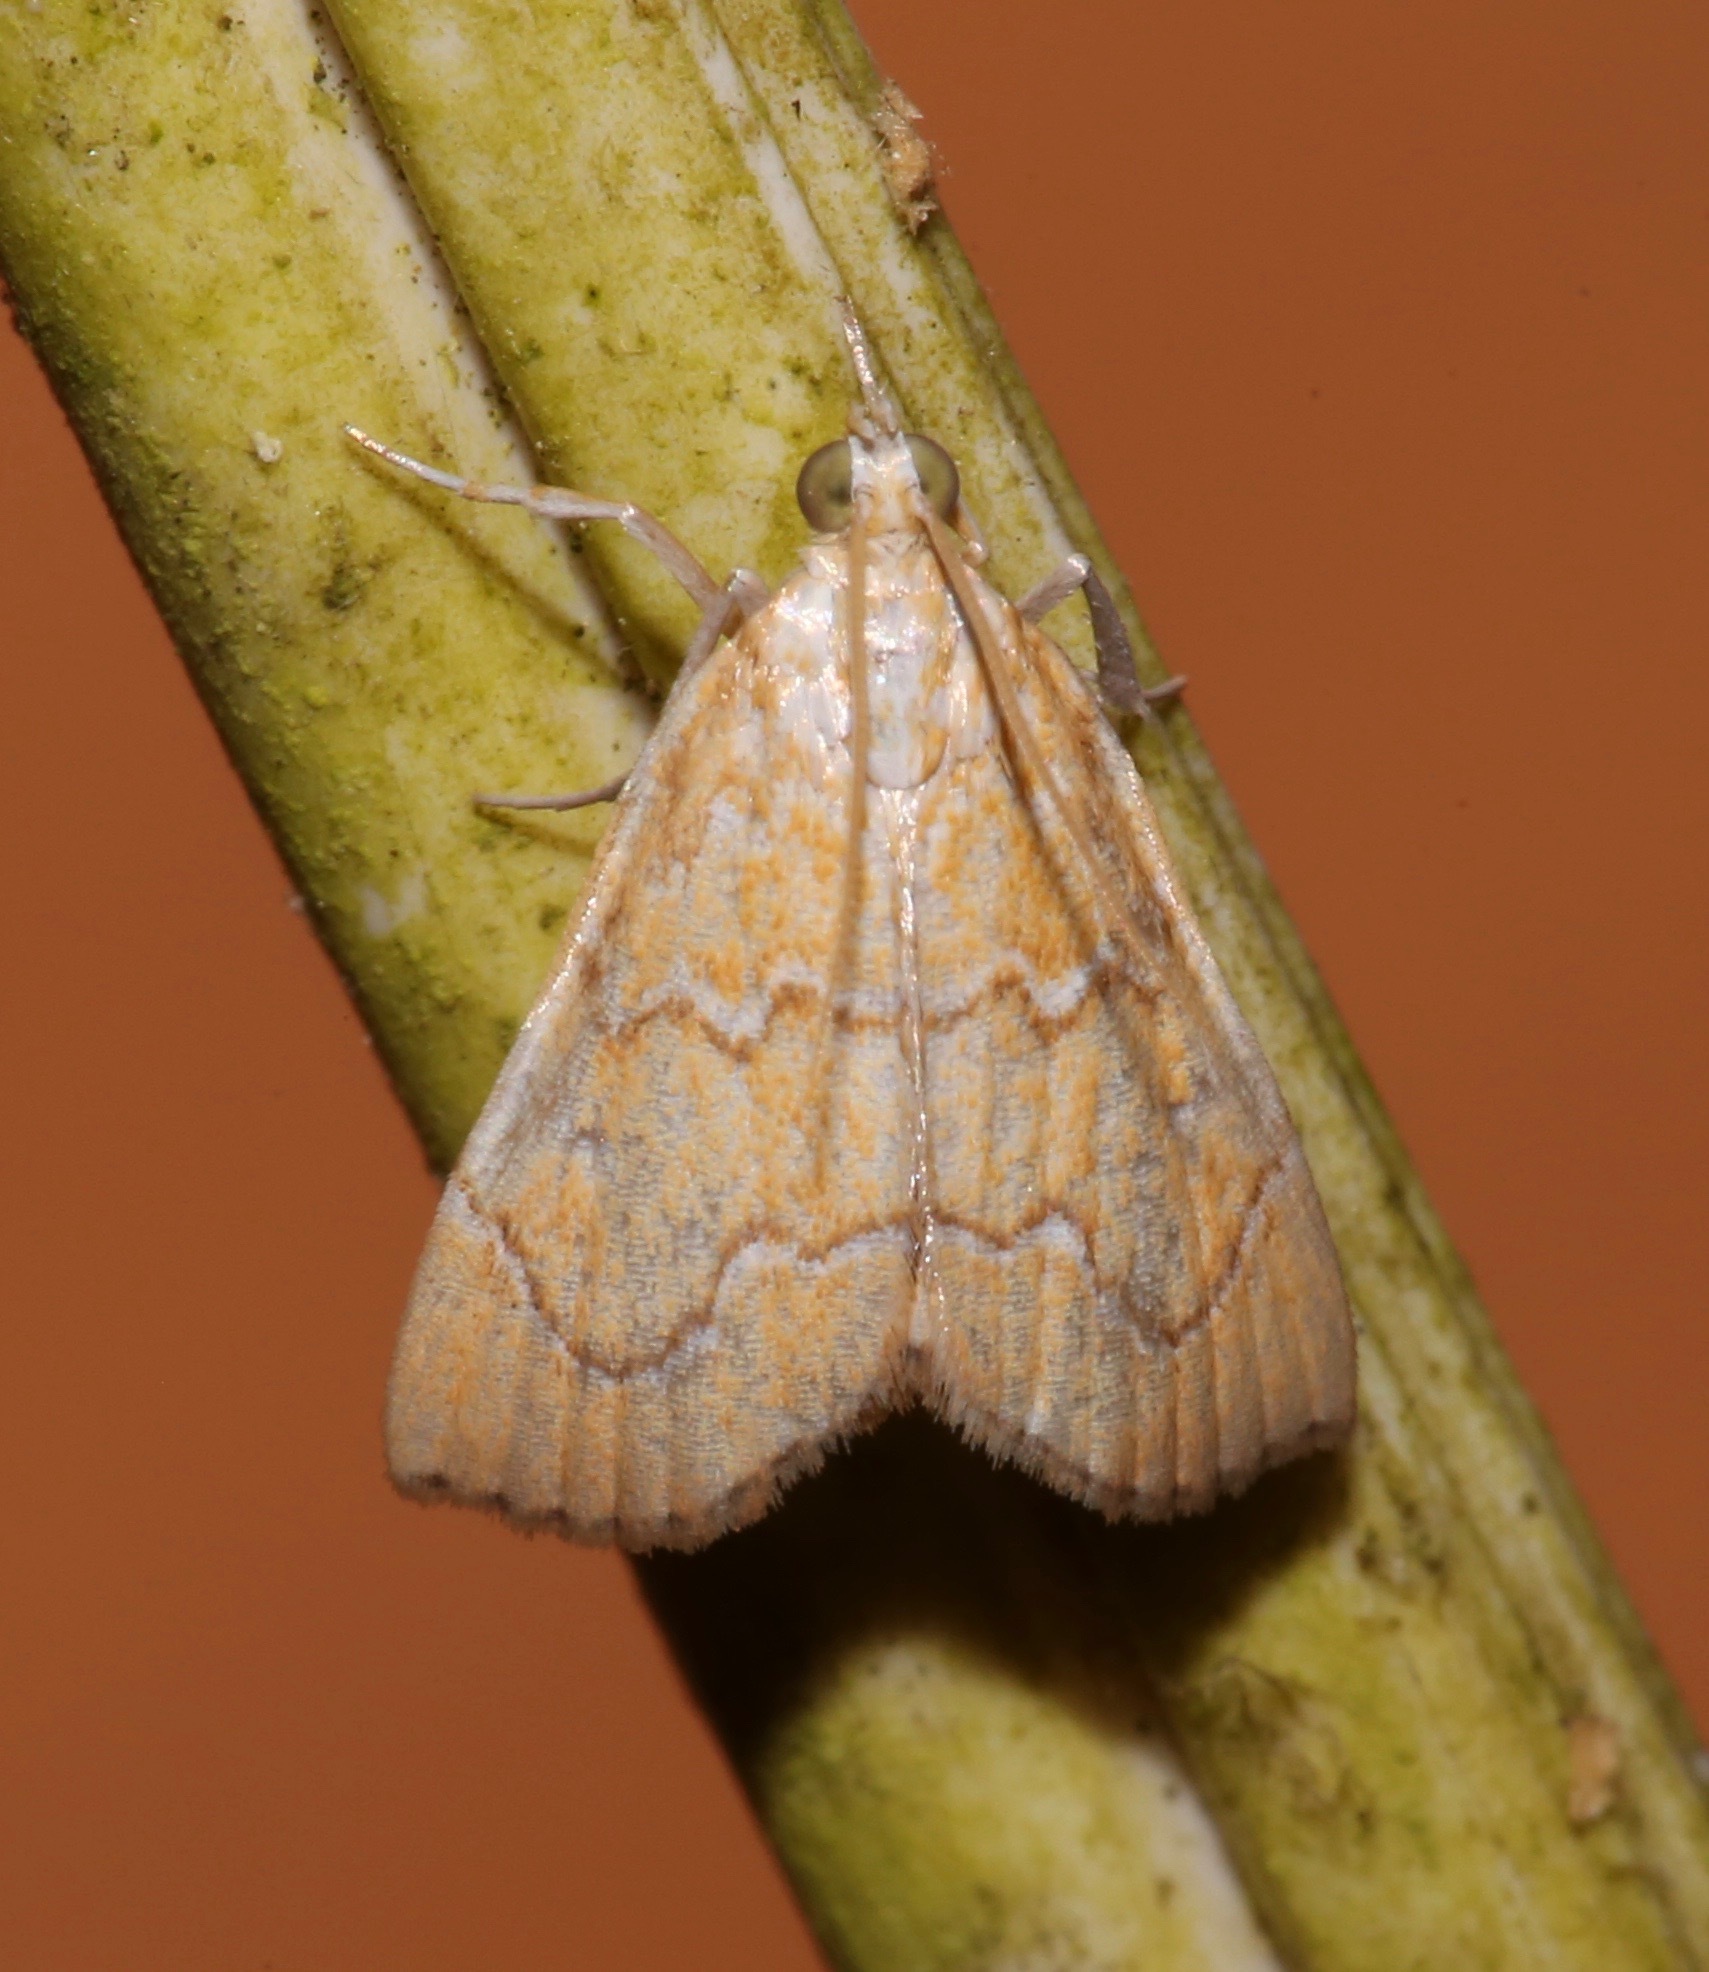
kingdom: Animalia
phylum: Arthropoda
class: Insecta
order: Lepidoptera
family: Crambidae
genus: Glaphyria
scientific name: Glaphyria sesquistrialis
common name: White-roped glaphyria
